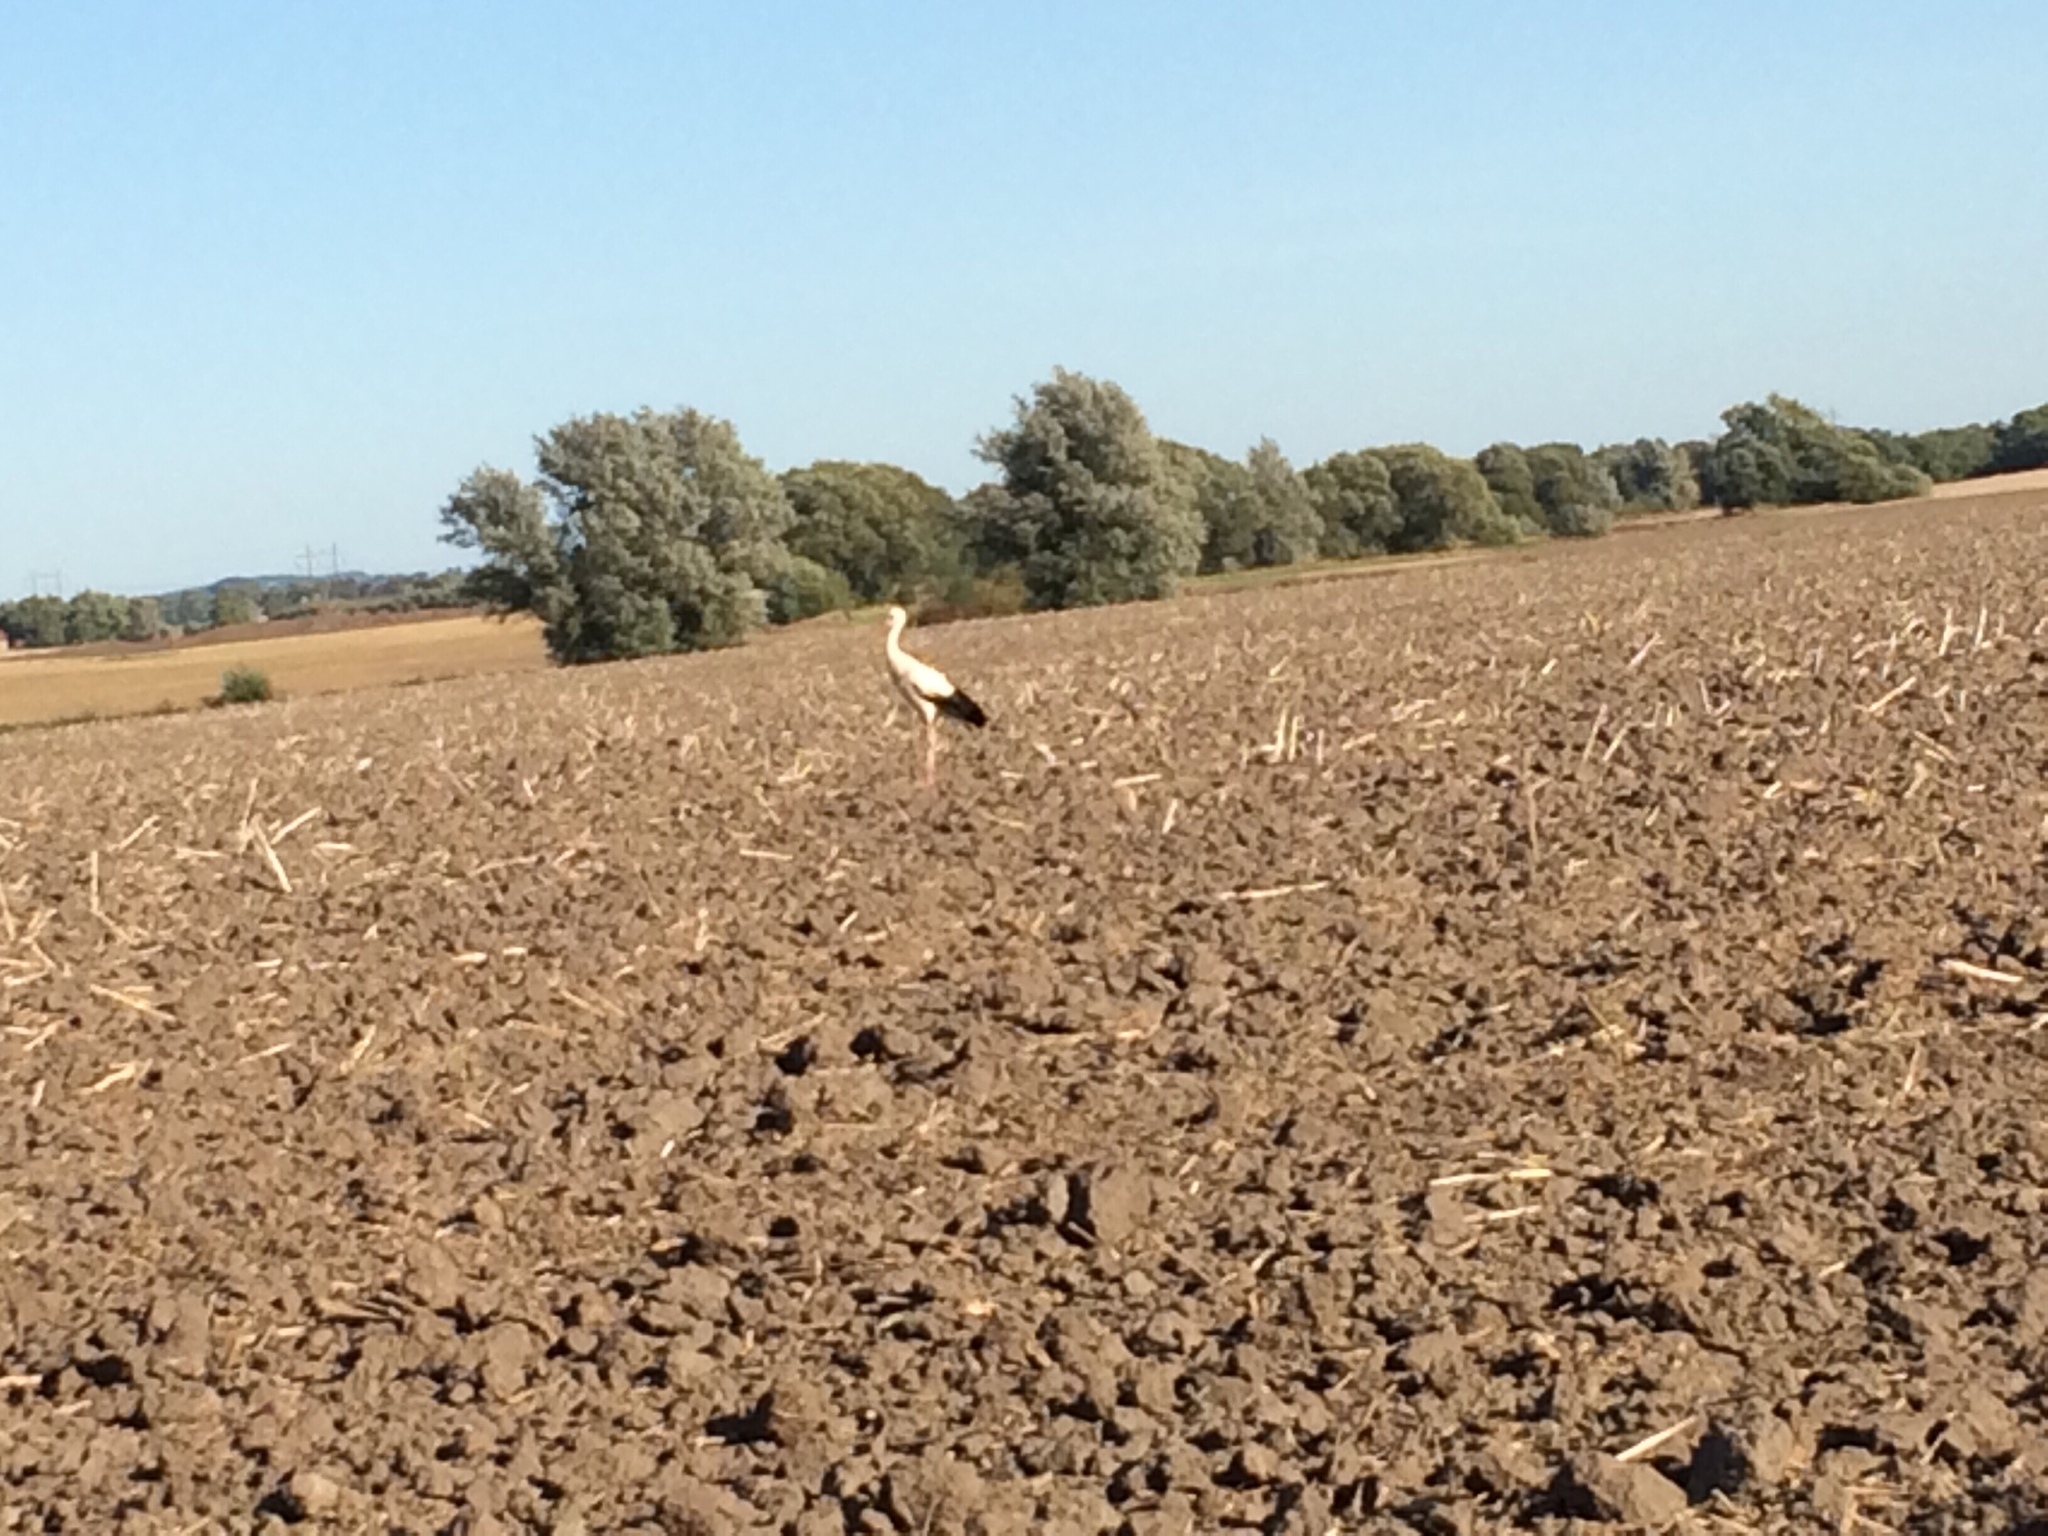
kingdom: Animalia
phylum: Chordata
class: Aves
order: Ciconiiformes
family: Ciconiidae
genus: Ciconia
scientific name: Ciconia ciconia
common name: White stork
